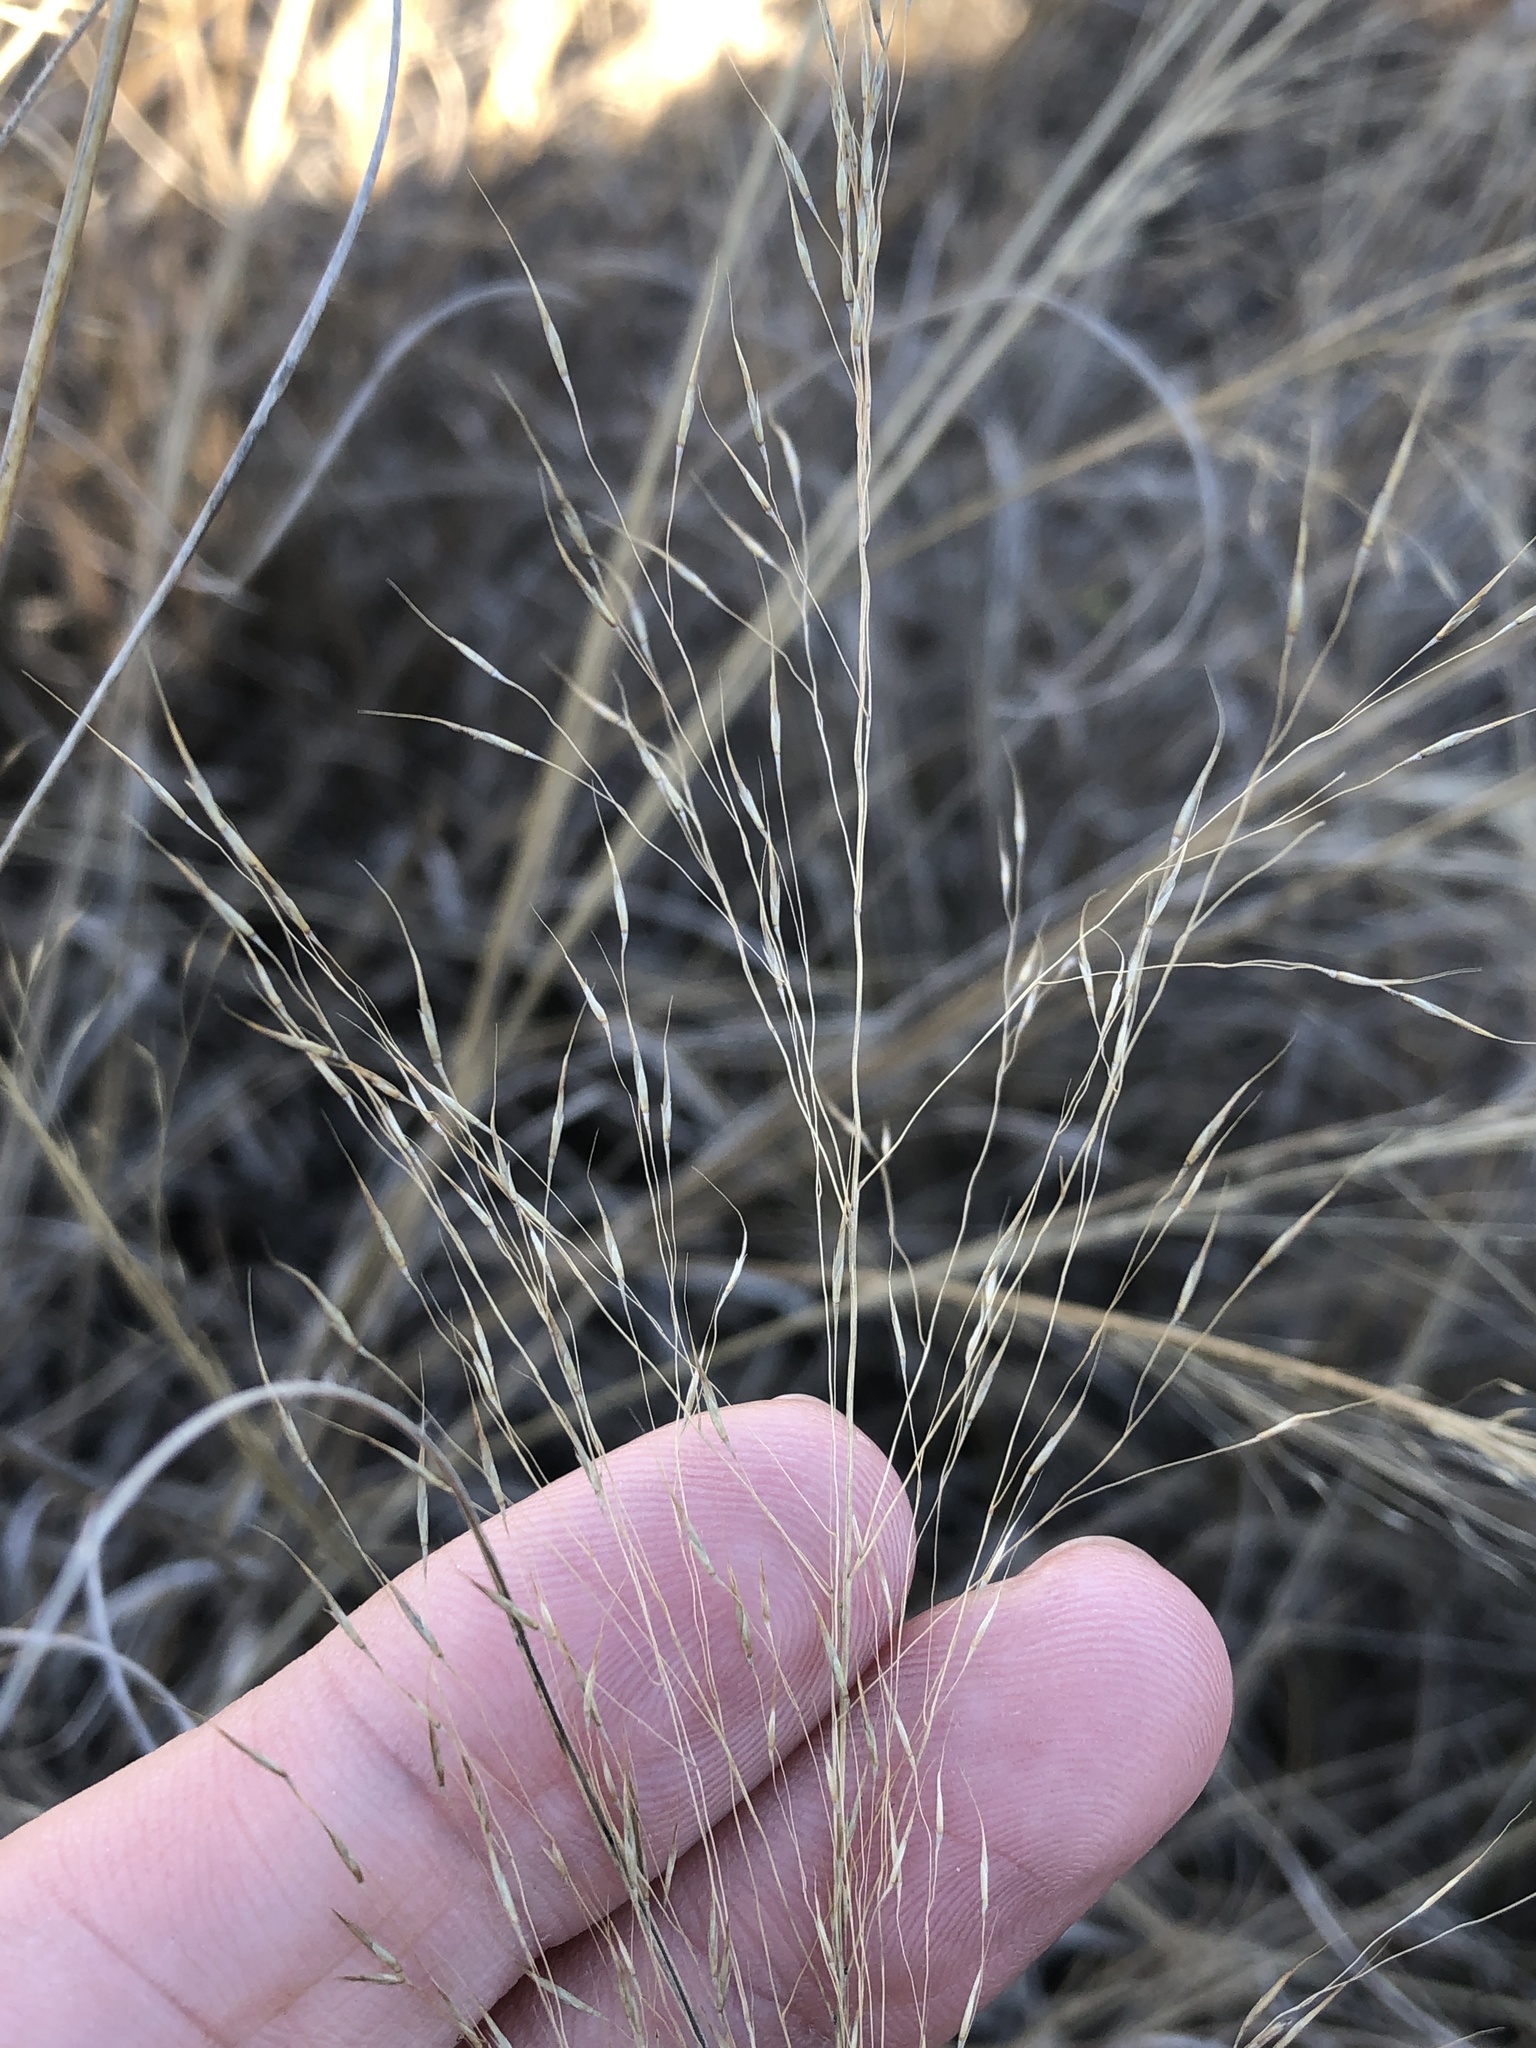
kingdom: Plantae
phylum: Tracheophyta
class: Liliopsida
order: Poales
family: Poaceae
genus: Muhlenbergia
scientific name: Muhlenbergia reverchonii
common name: Seep muhly
